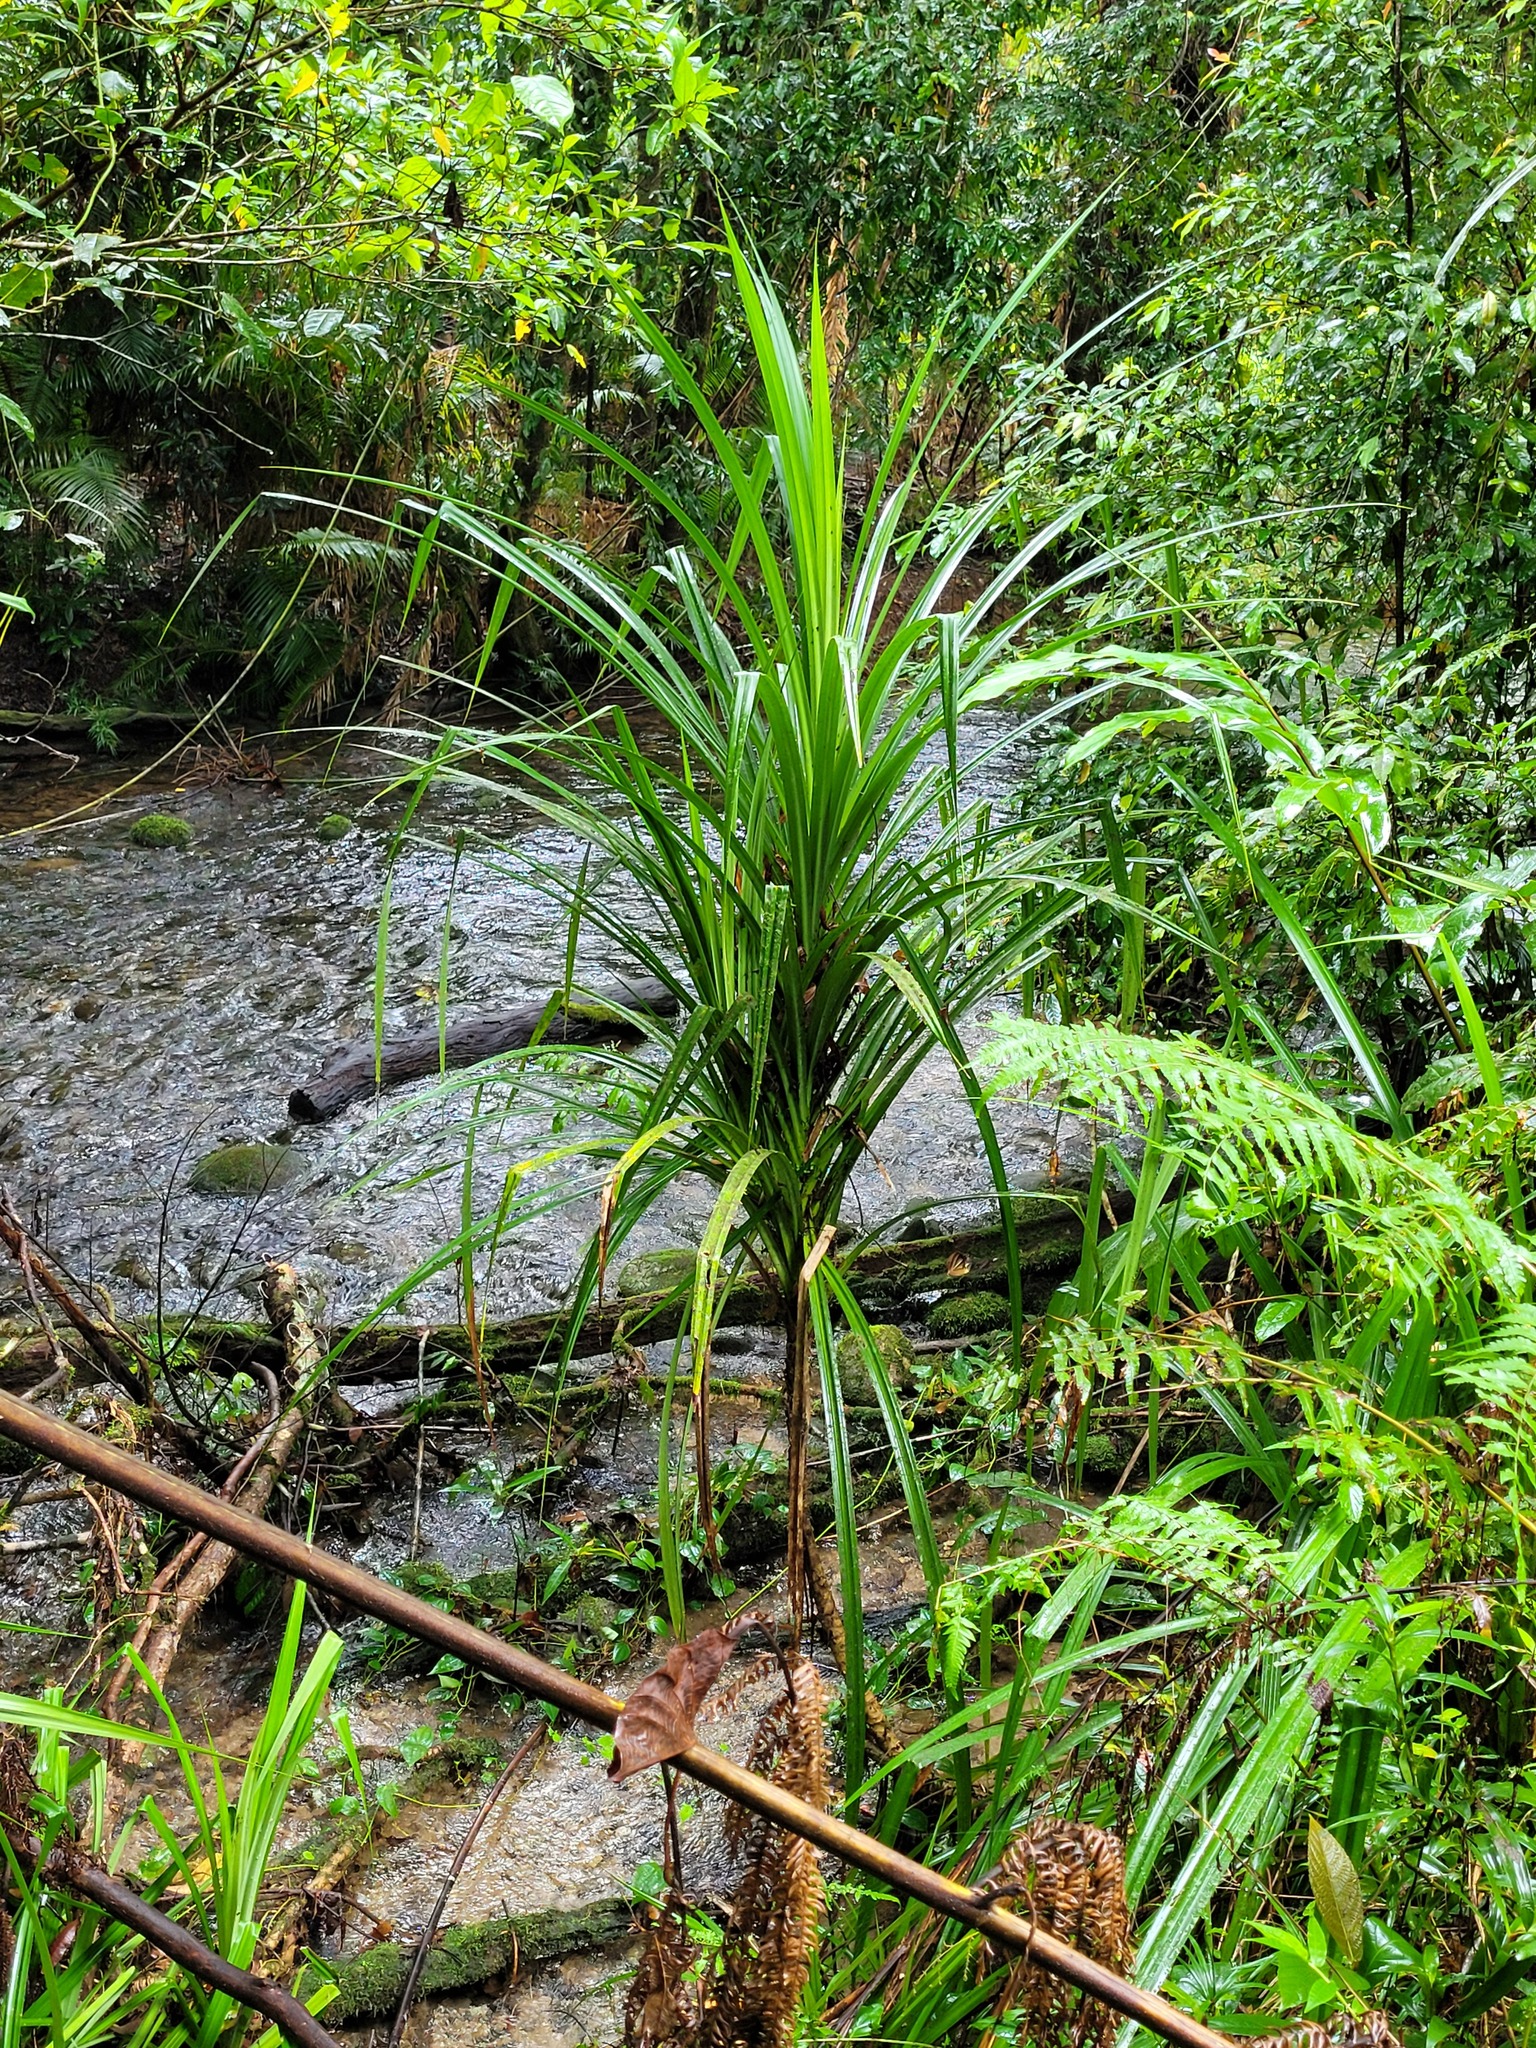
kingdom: Plantae
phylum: Tracheophyta
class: Liliopsida
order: Pandanales
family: Pandanaceae
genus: Benstonea
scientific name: Benstonea monticola
